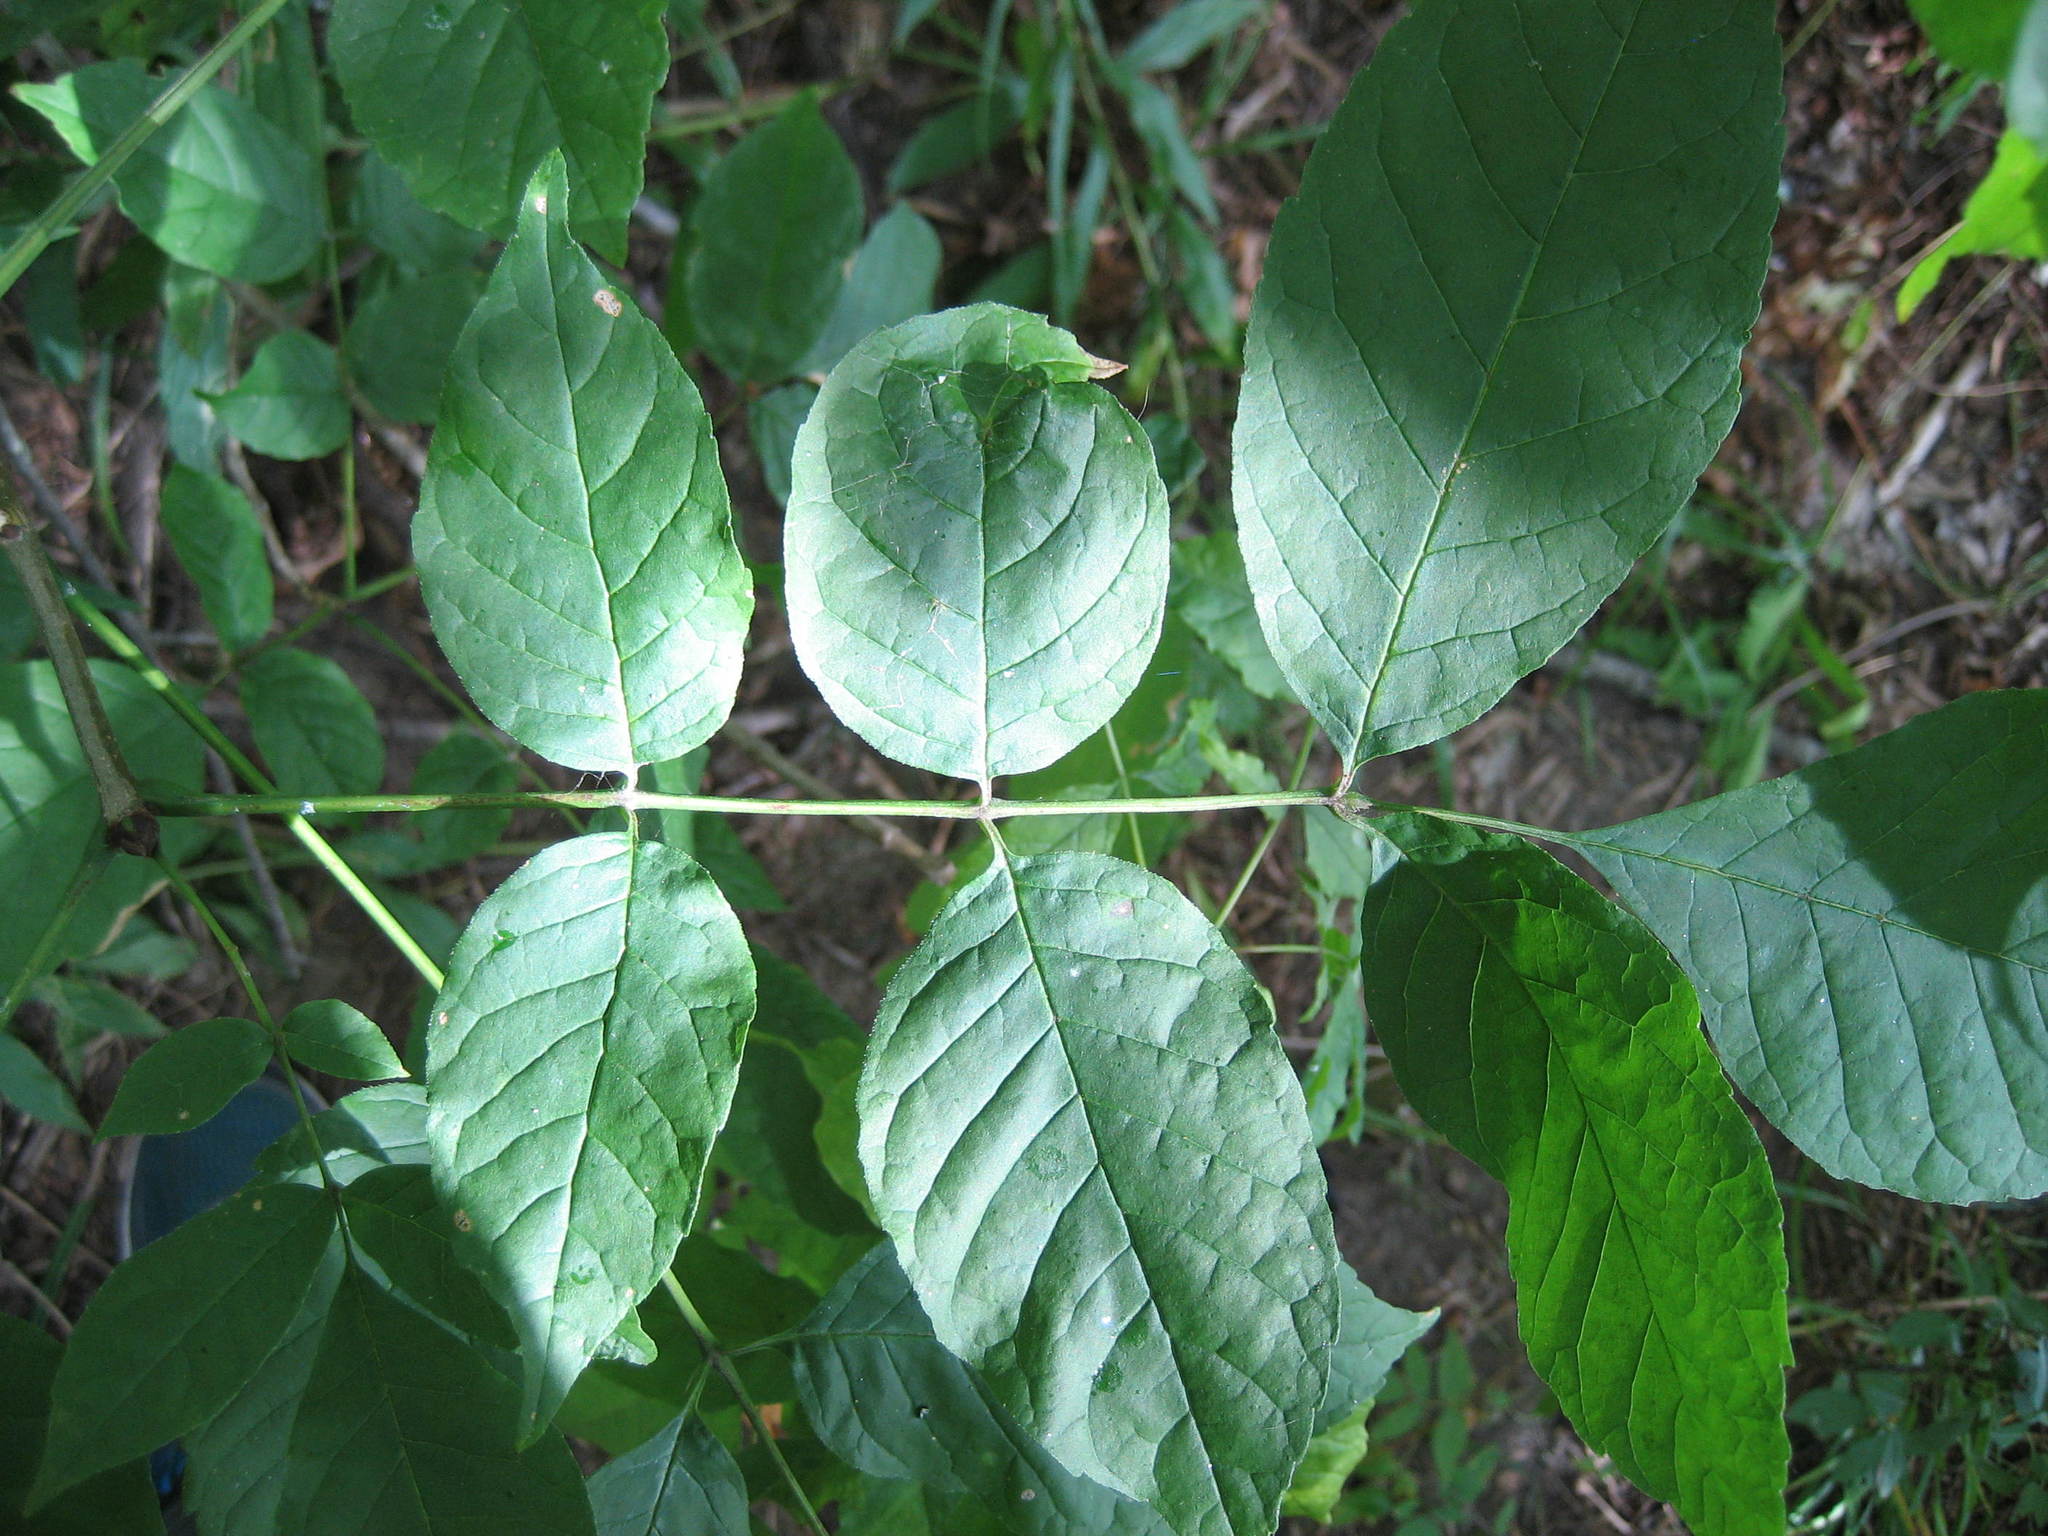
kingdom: Plantae
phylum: Tracheophyta
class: Magnoliopsida
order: Lamiales
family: Oleaceae
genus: Fraxinus
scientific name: Fraxinus americana
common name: White ash
